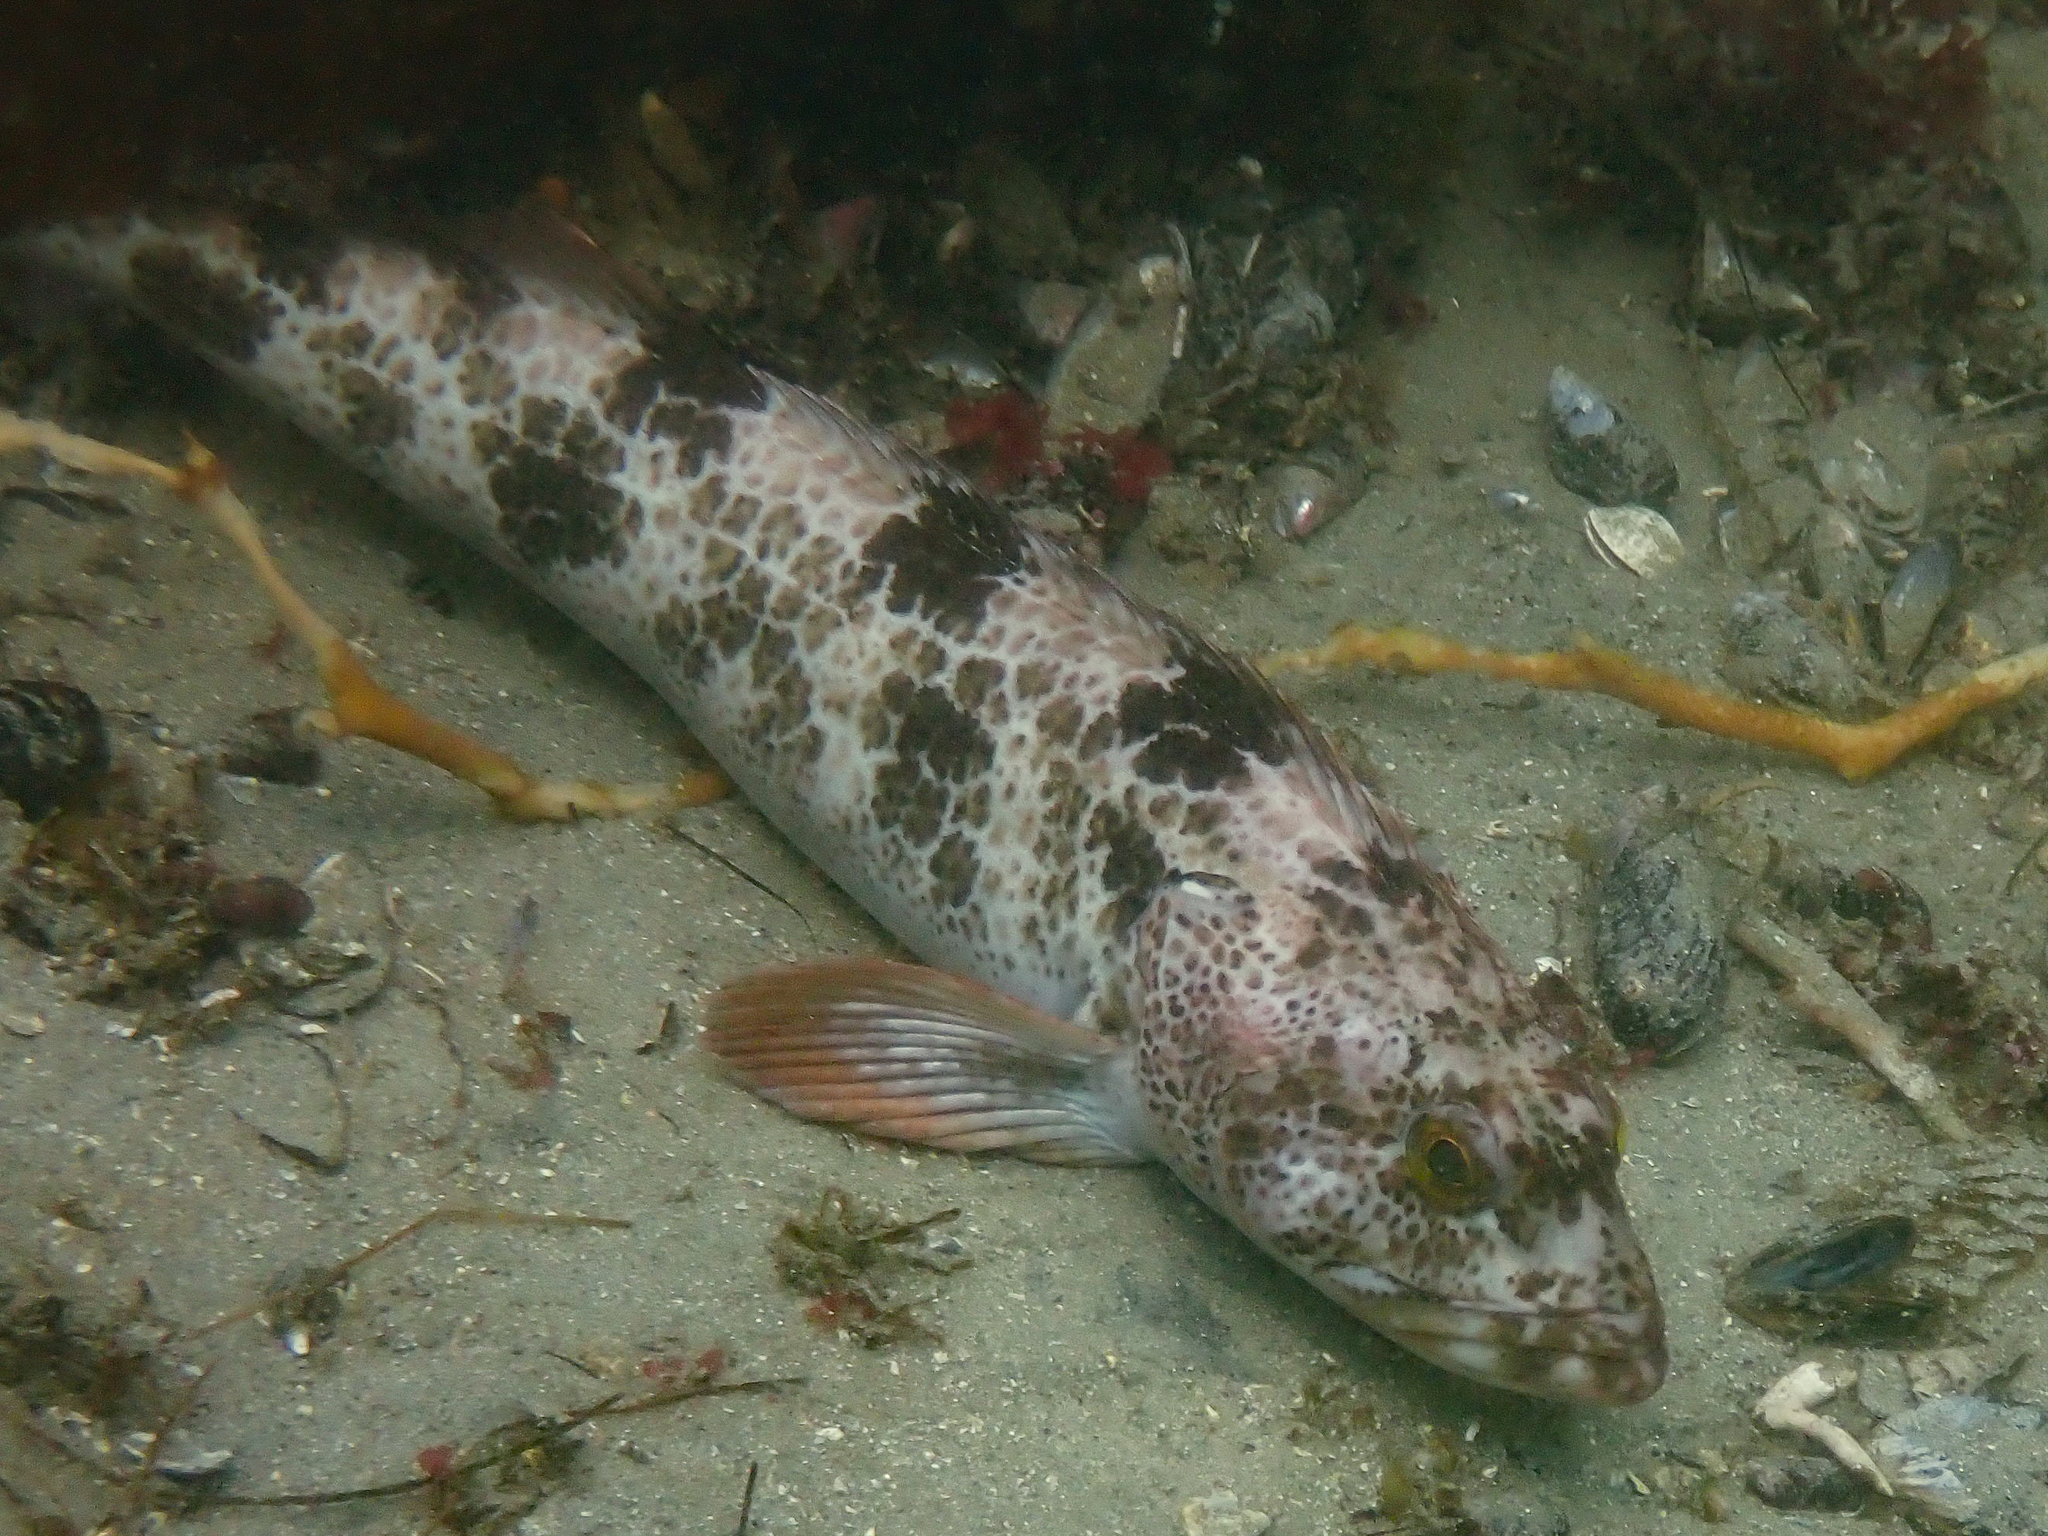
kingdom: Animalia
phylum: Chordata
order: Scorpaeniformes
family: Hexagrammidae
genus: Ophiodon
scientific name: Ophiodon elongatus
